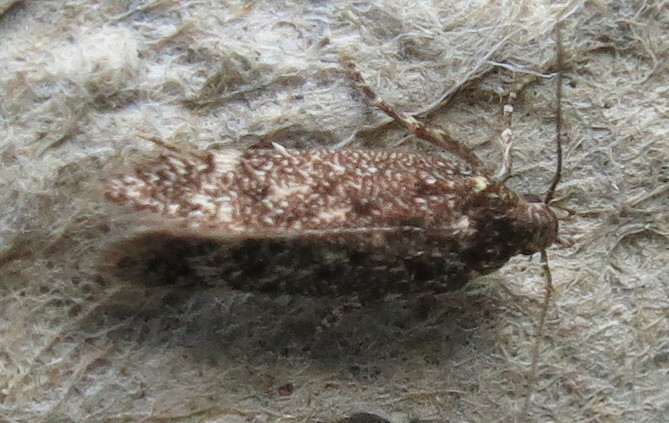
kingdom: Animalia
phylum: Arthropoda
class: Insecta
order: Lepidoptera
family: Gelechiidae
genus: Bryotropha
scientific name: Bryotropha affinis
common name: Dark groundling
